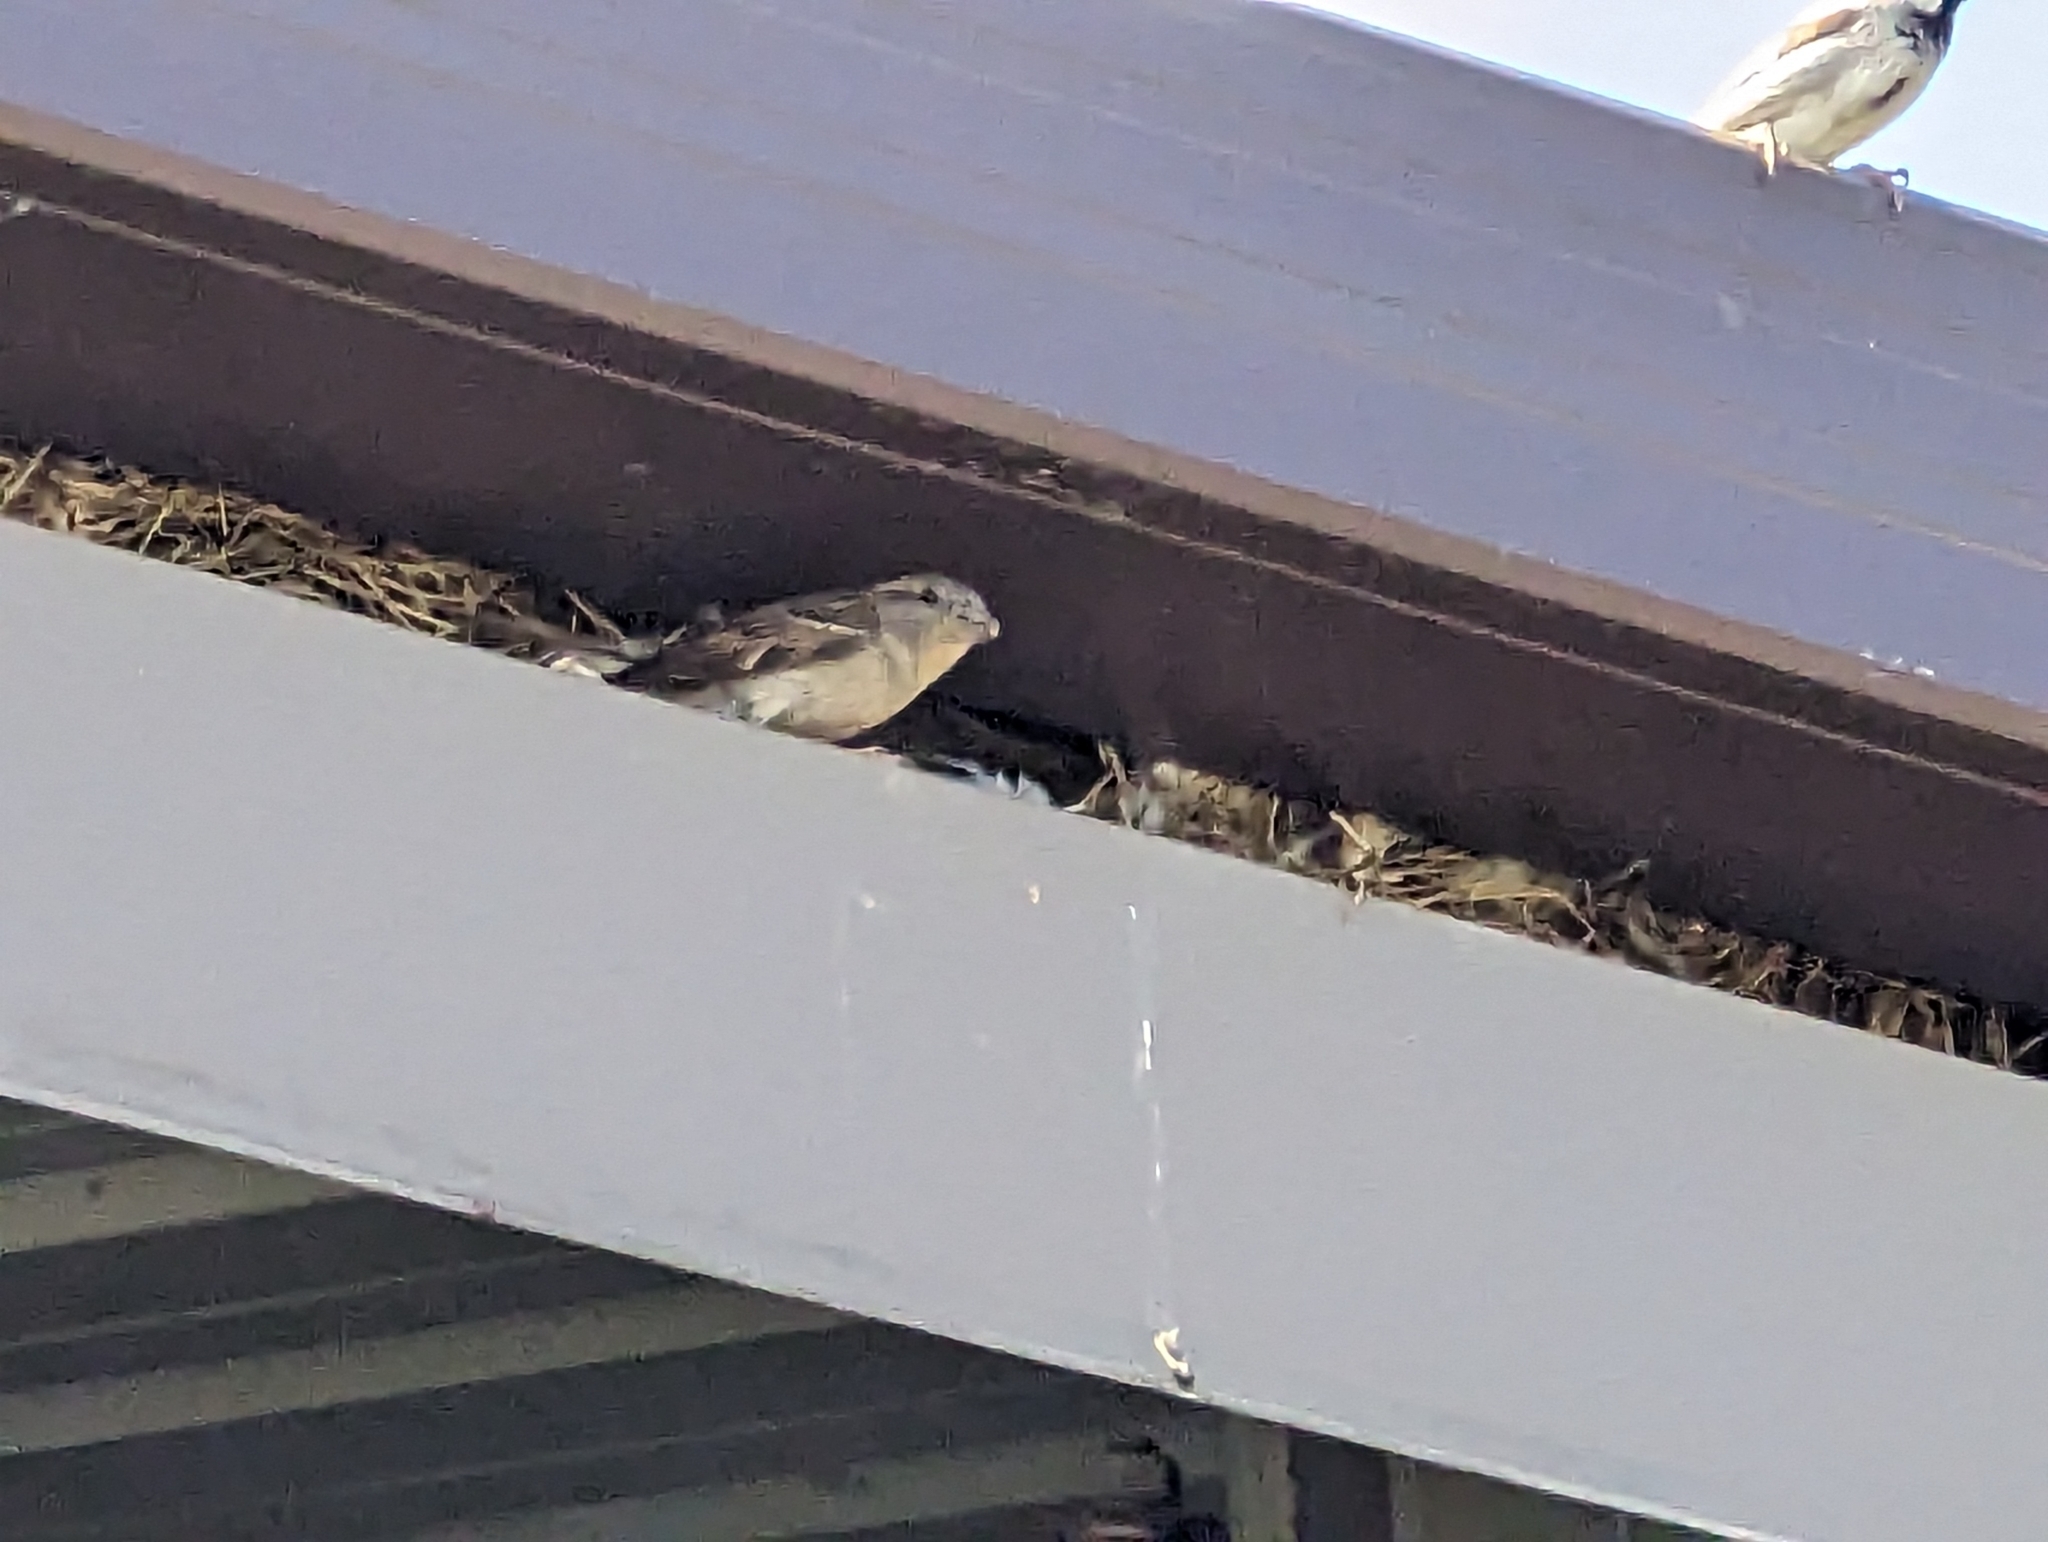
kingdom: Animalia
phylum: Chordata
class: Aves
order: Passeriformes
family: Passeridae
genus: Passer
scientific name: Passer domesticus
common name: House sparrow
